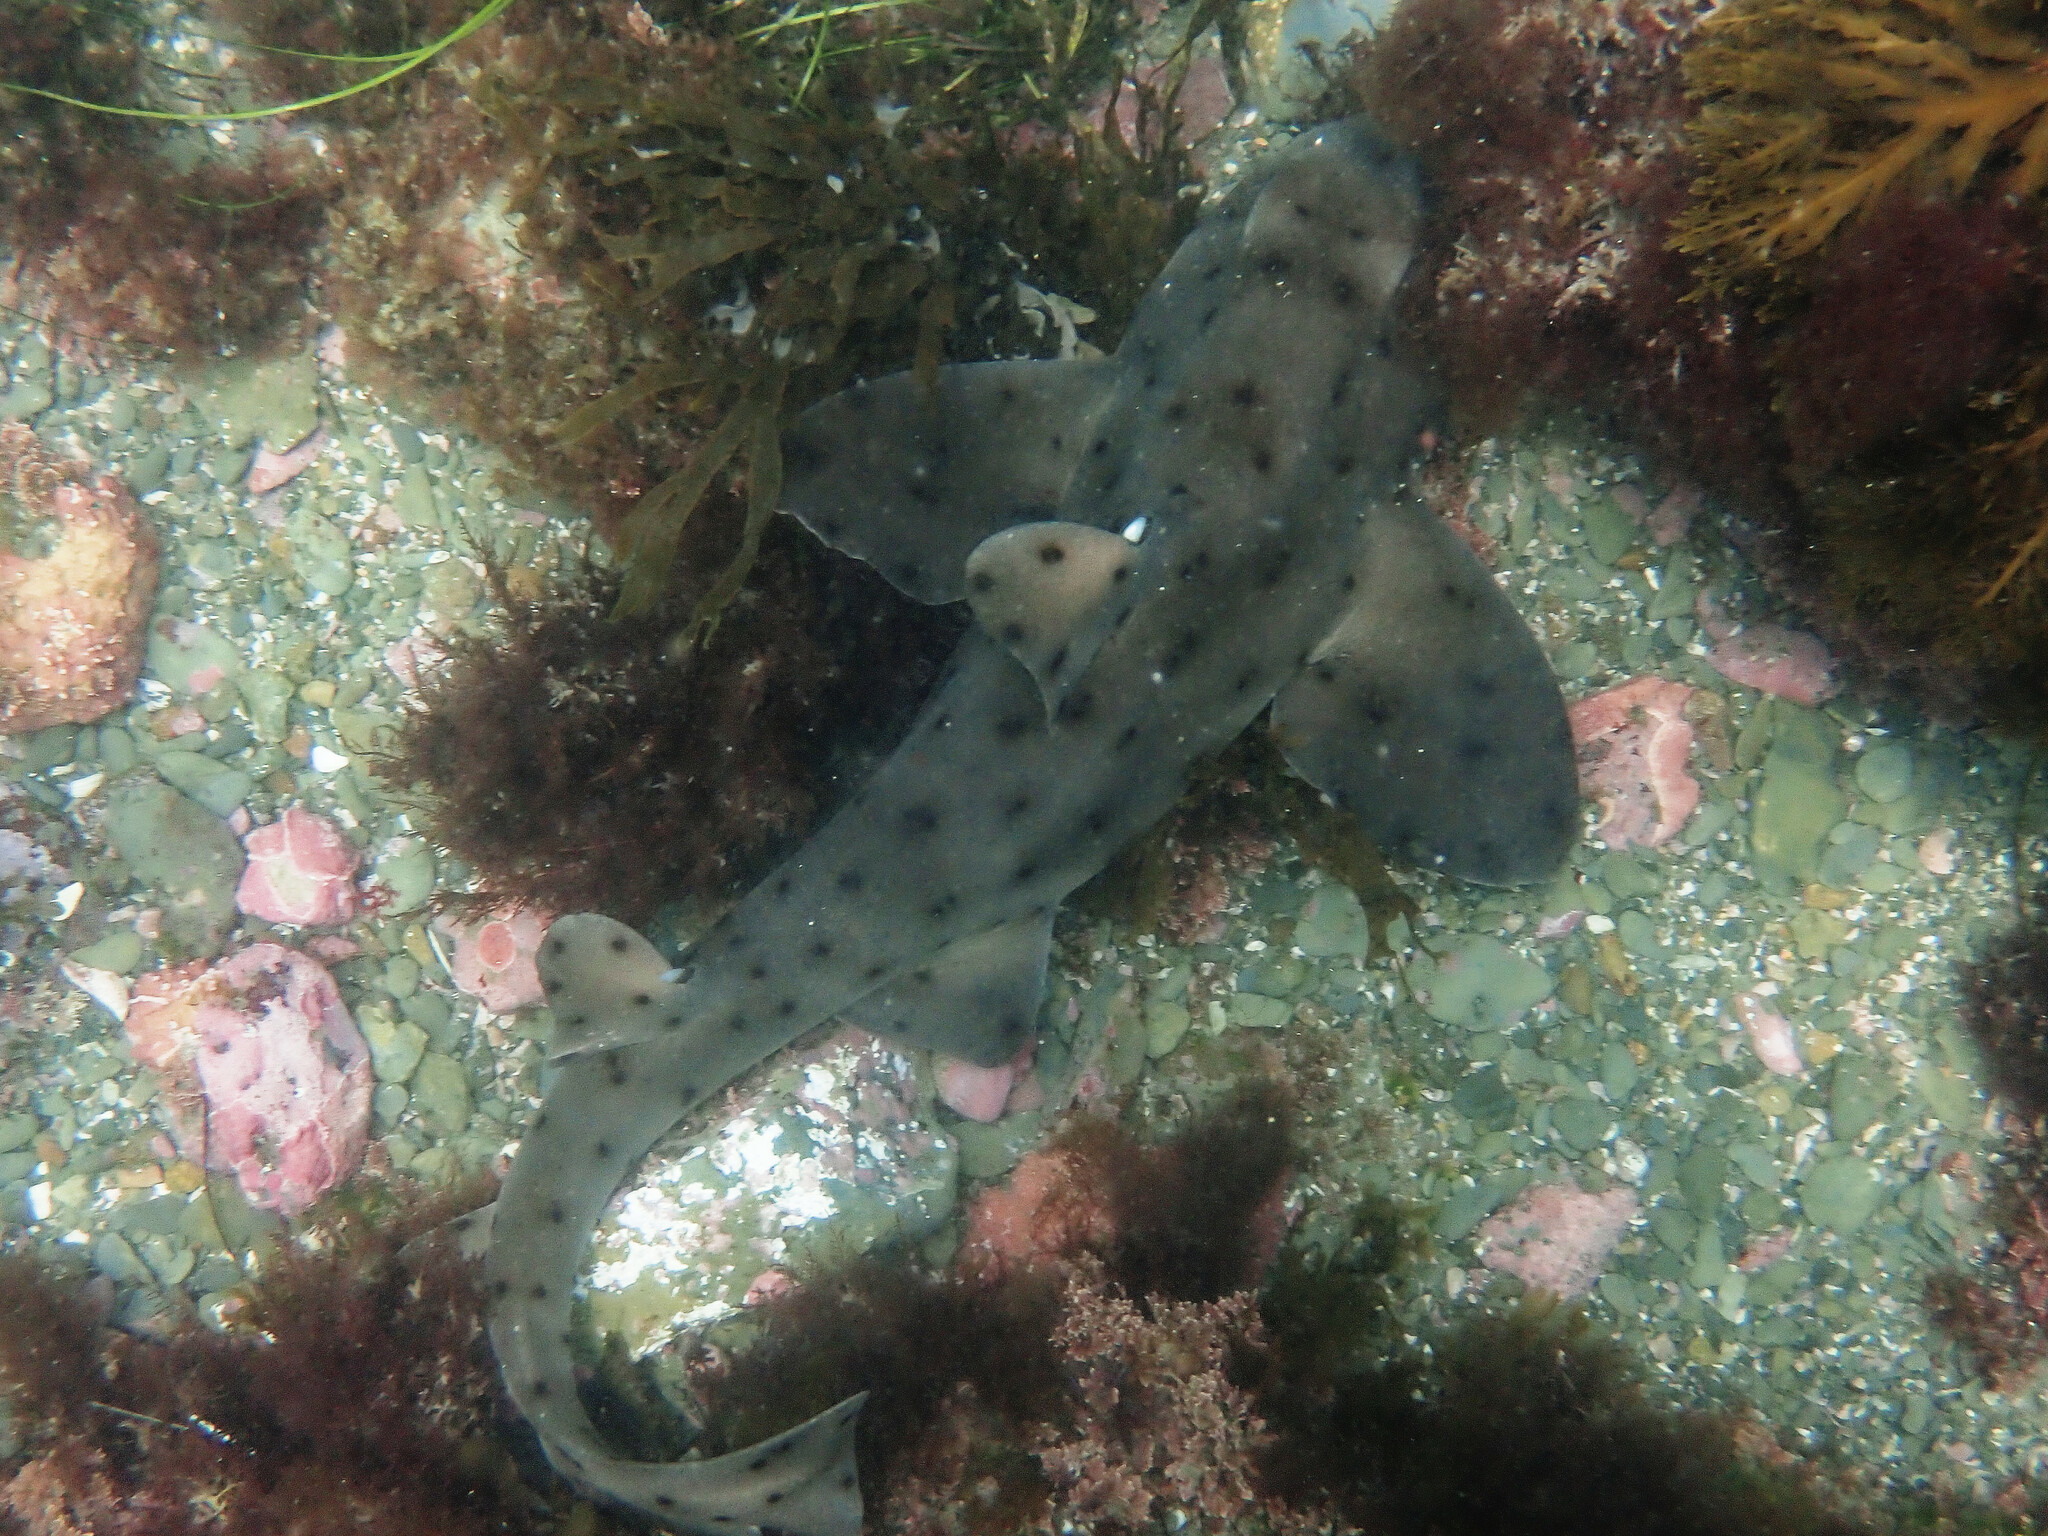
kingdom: Animalia
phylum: Chordata
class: Elasmobranchii
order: Heterodontiformes
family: Heterodontidae
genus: Heterodontus
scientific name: Heterodontus francisci
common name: Horn shark
